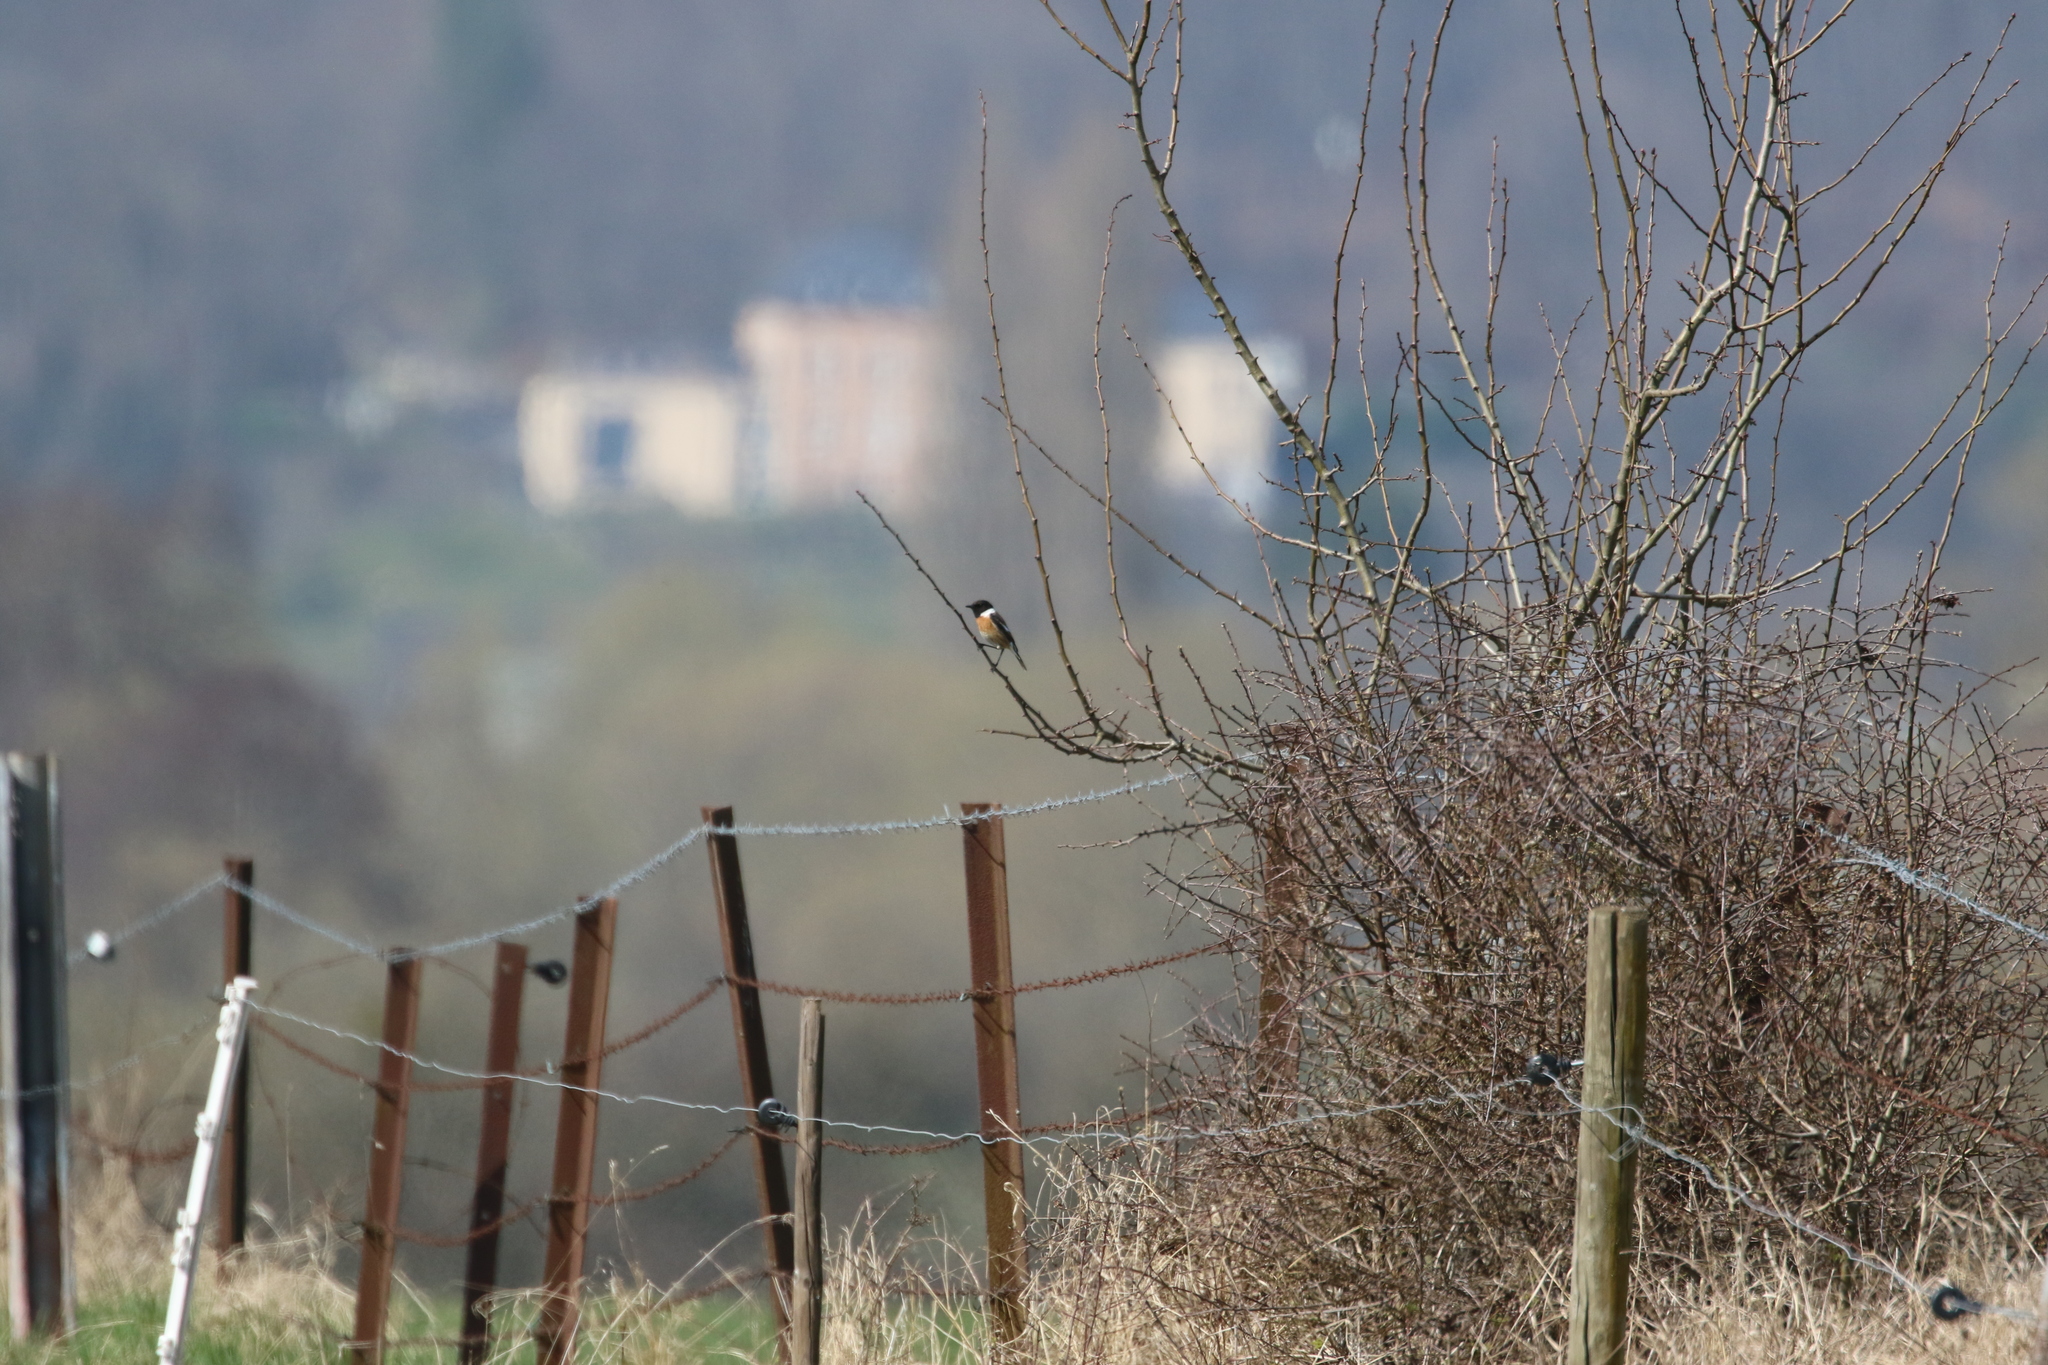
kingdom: Animalia
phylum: Chordata
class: Aves
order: Passeriformes
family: Muscicapidae
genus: Saxicola
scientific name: Saxicola rubicola
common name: European stonechat
